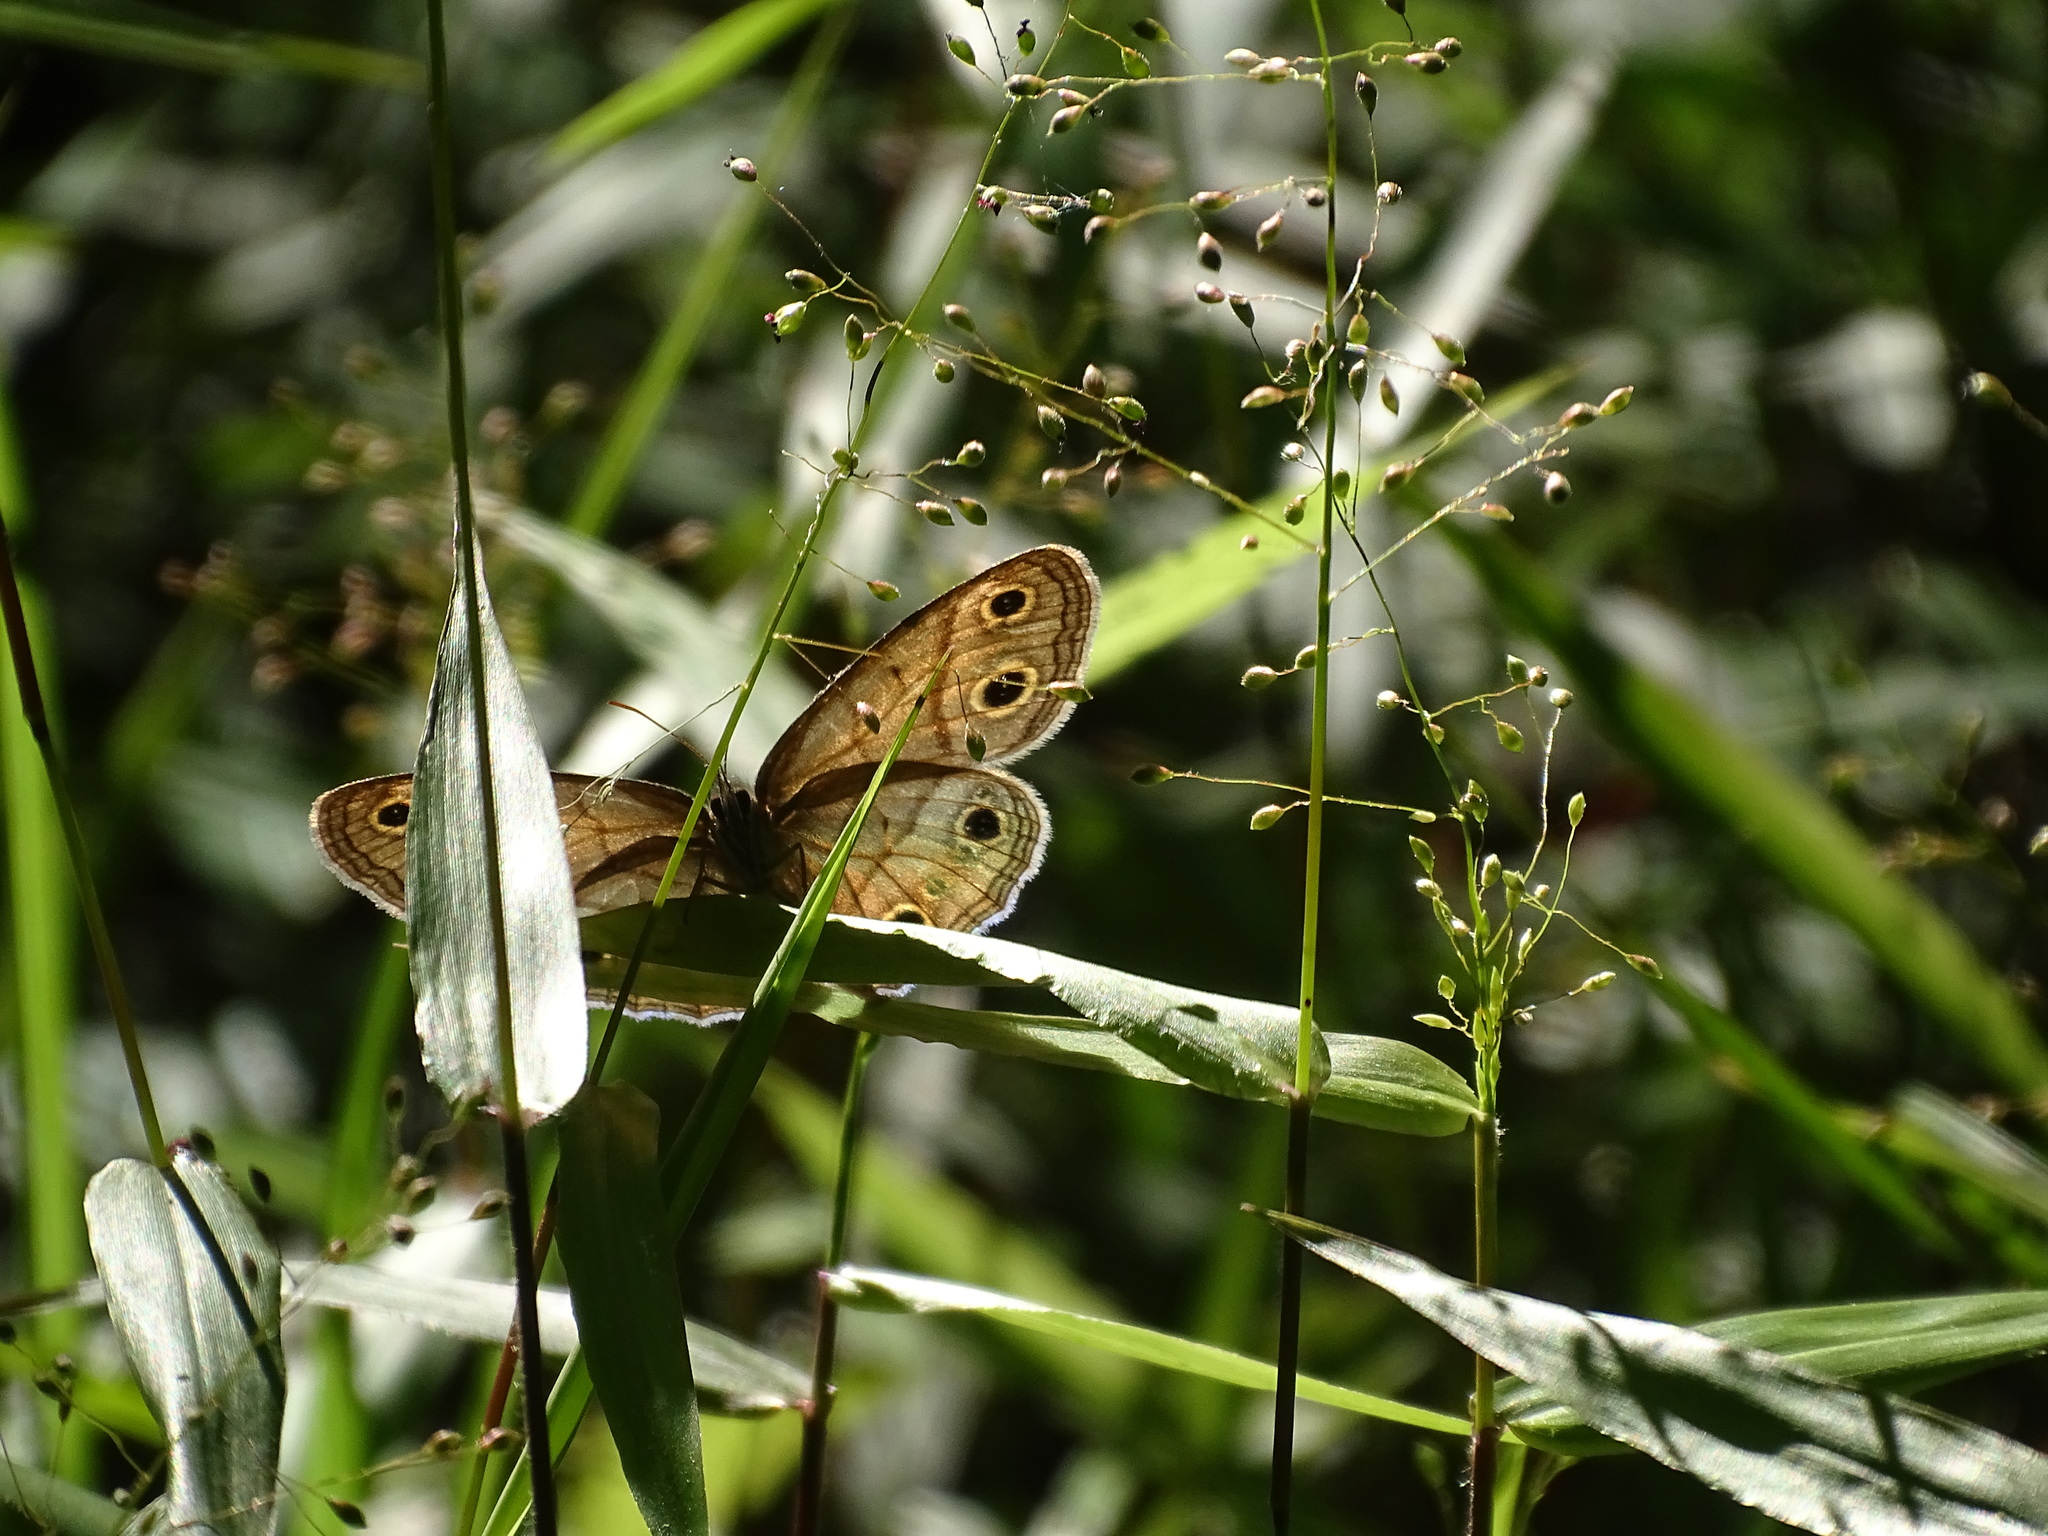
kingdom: Animalia
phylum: Arthropoda
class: Insecta
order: Lepidoptera
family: Nymphalidae
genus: Euptychia
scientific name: Euptychia cymela
